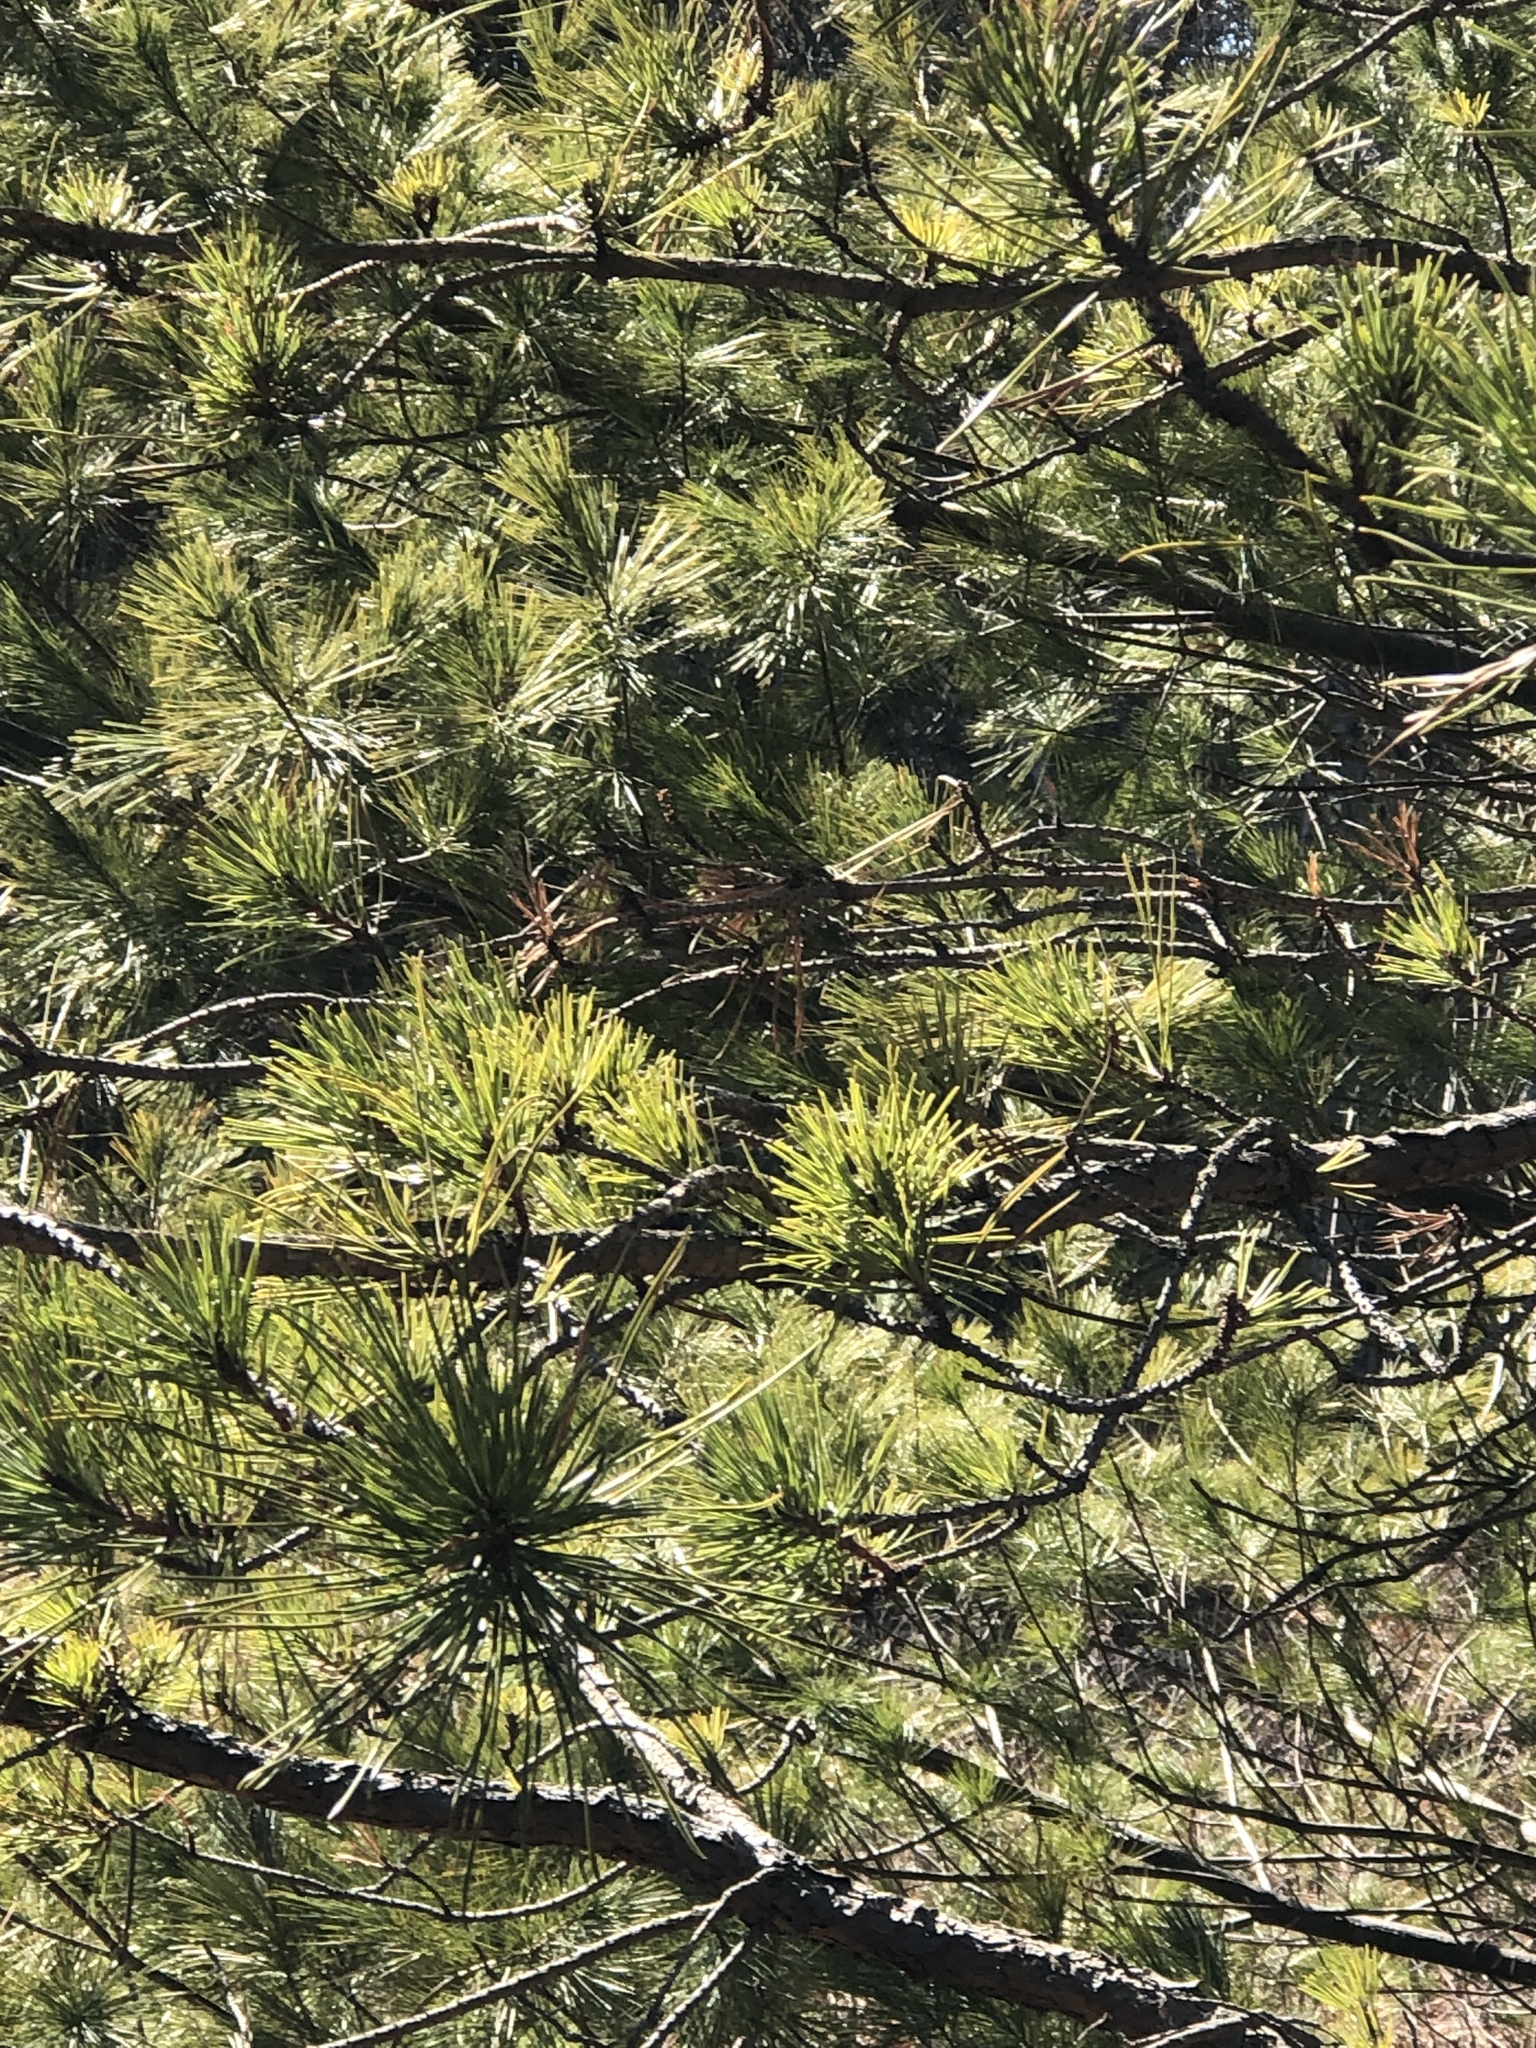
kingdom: Plantae
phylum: Tracheophyta
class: Pinopsida
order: Pinales
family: Pinaceae
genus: Pinus
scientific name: Pinus banksiana
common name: Jack pine
